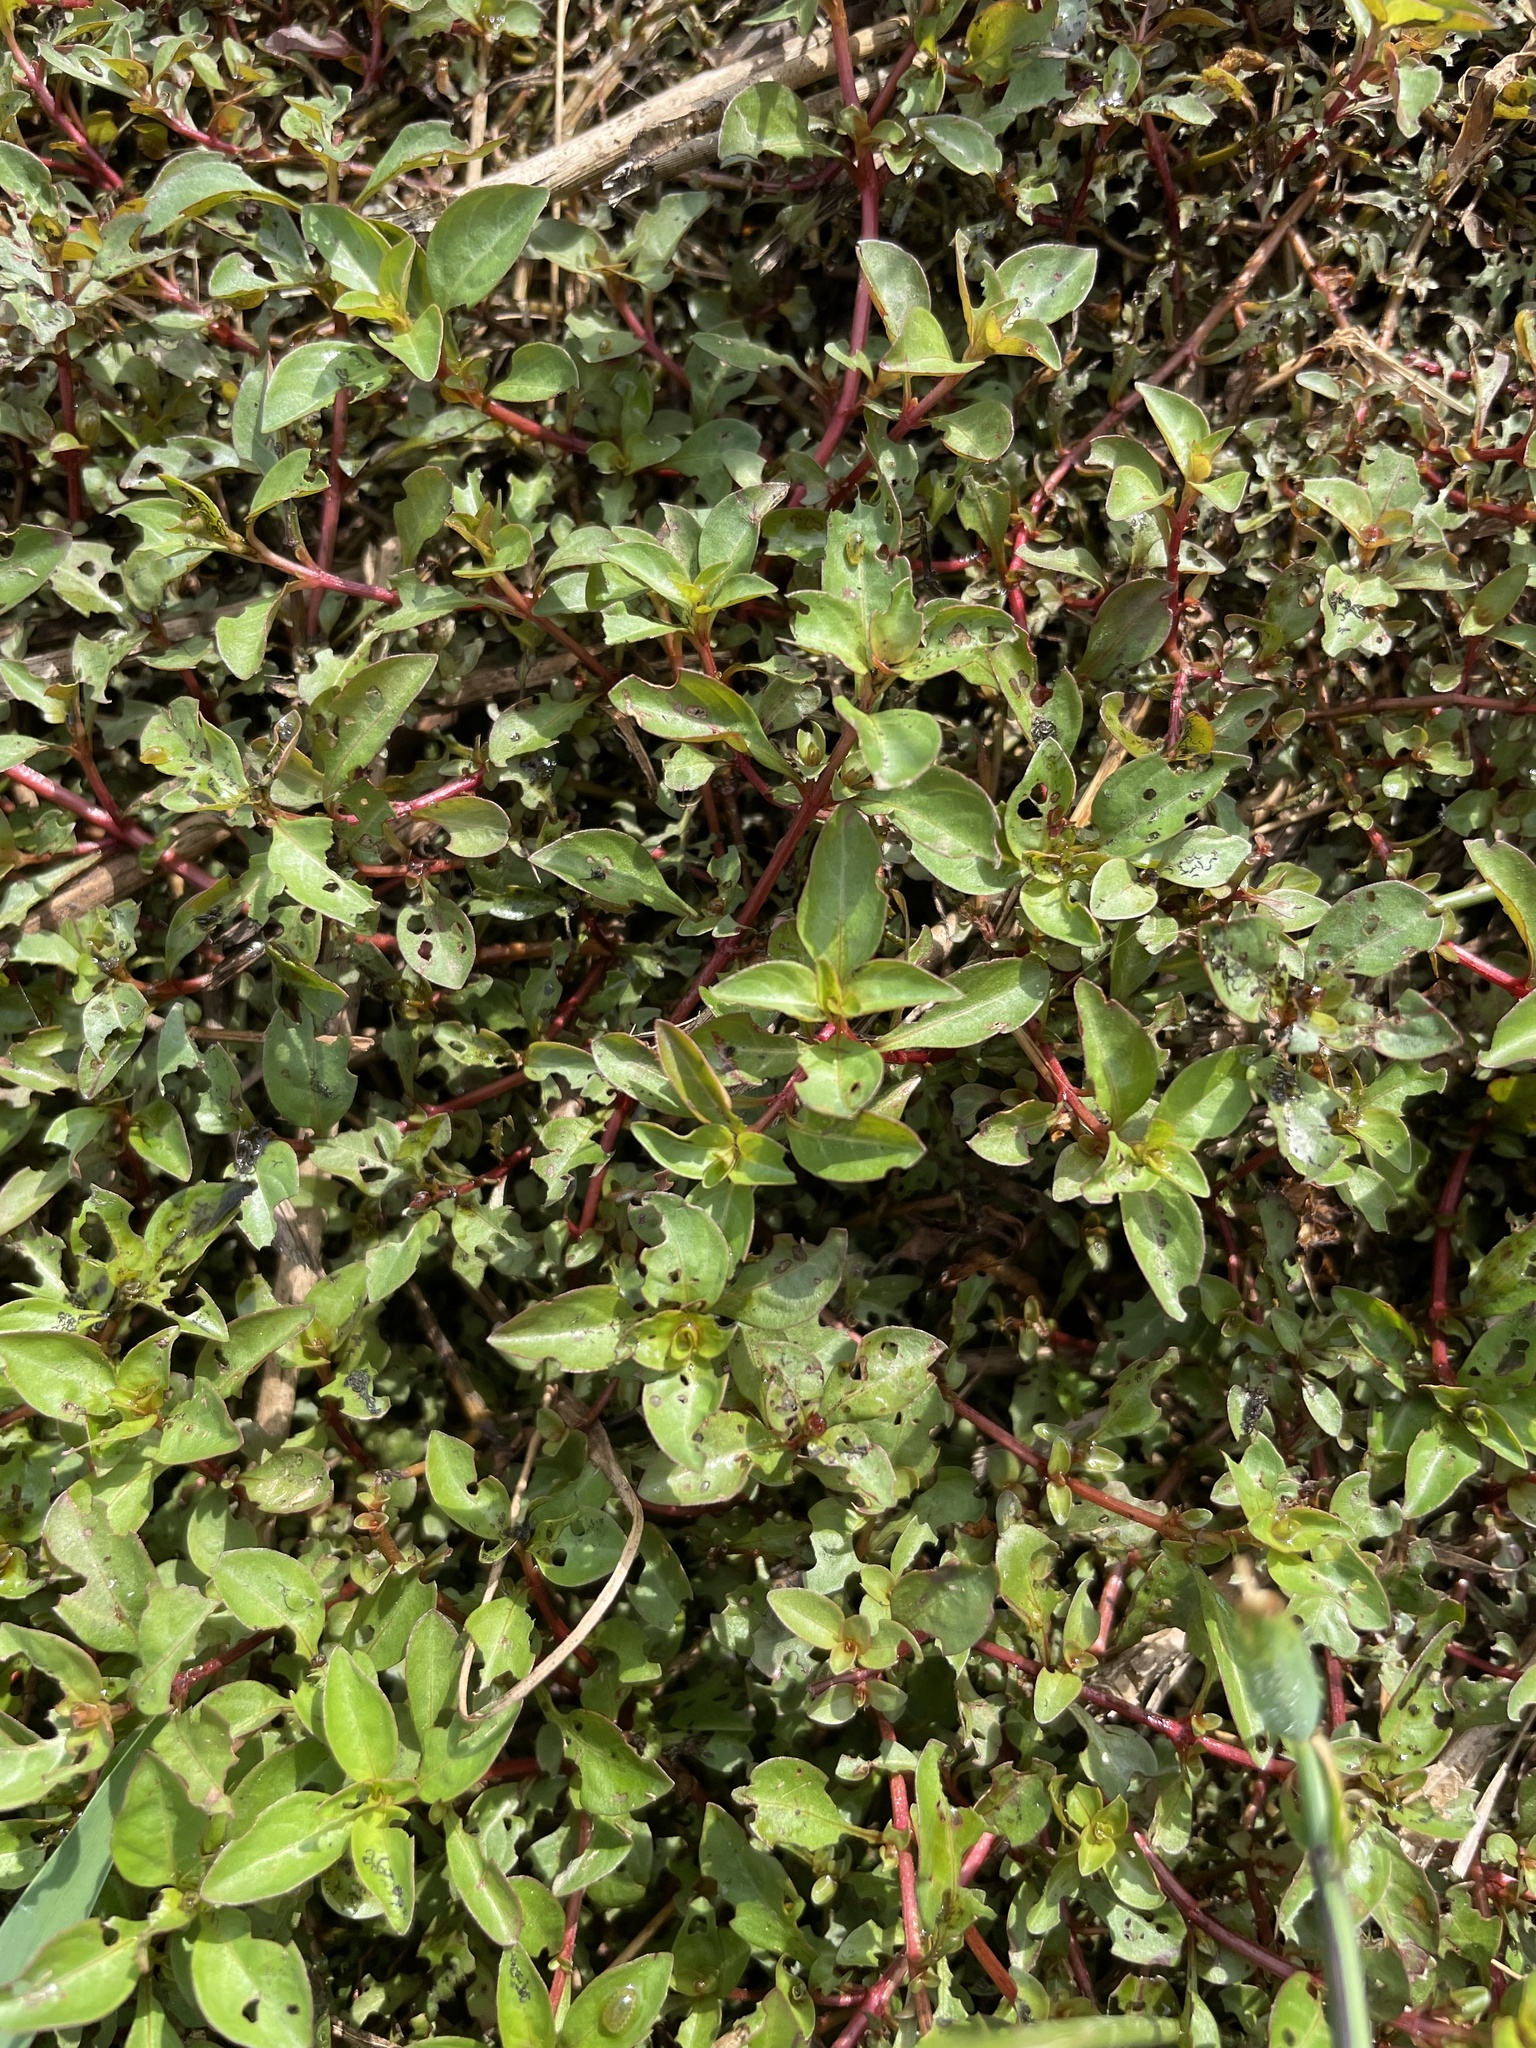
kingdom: Plantae
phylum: Tracheophyta
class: Magnoliopsida
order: Myrtales
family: Onagraceae
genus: Ludwigia
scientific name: Ludwigia palustris
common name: Hampshire-purslane
